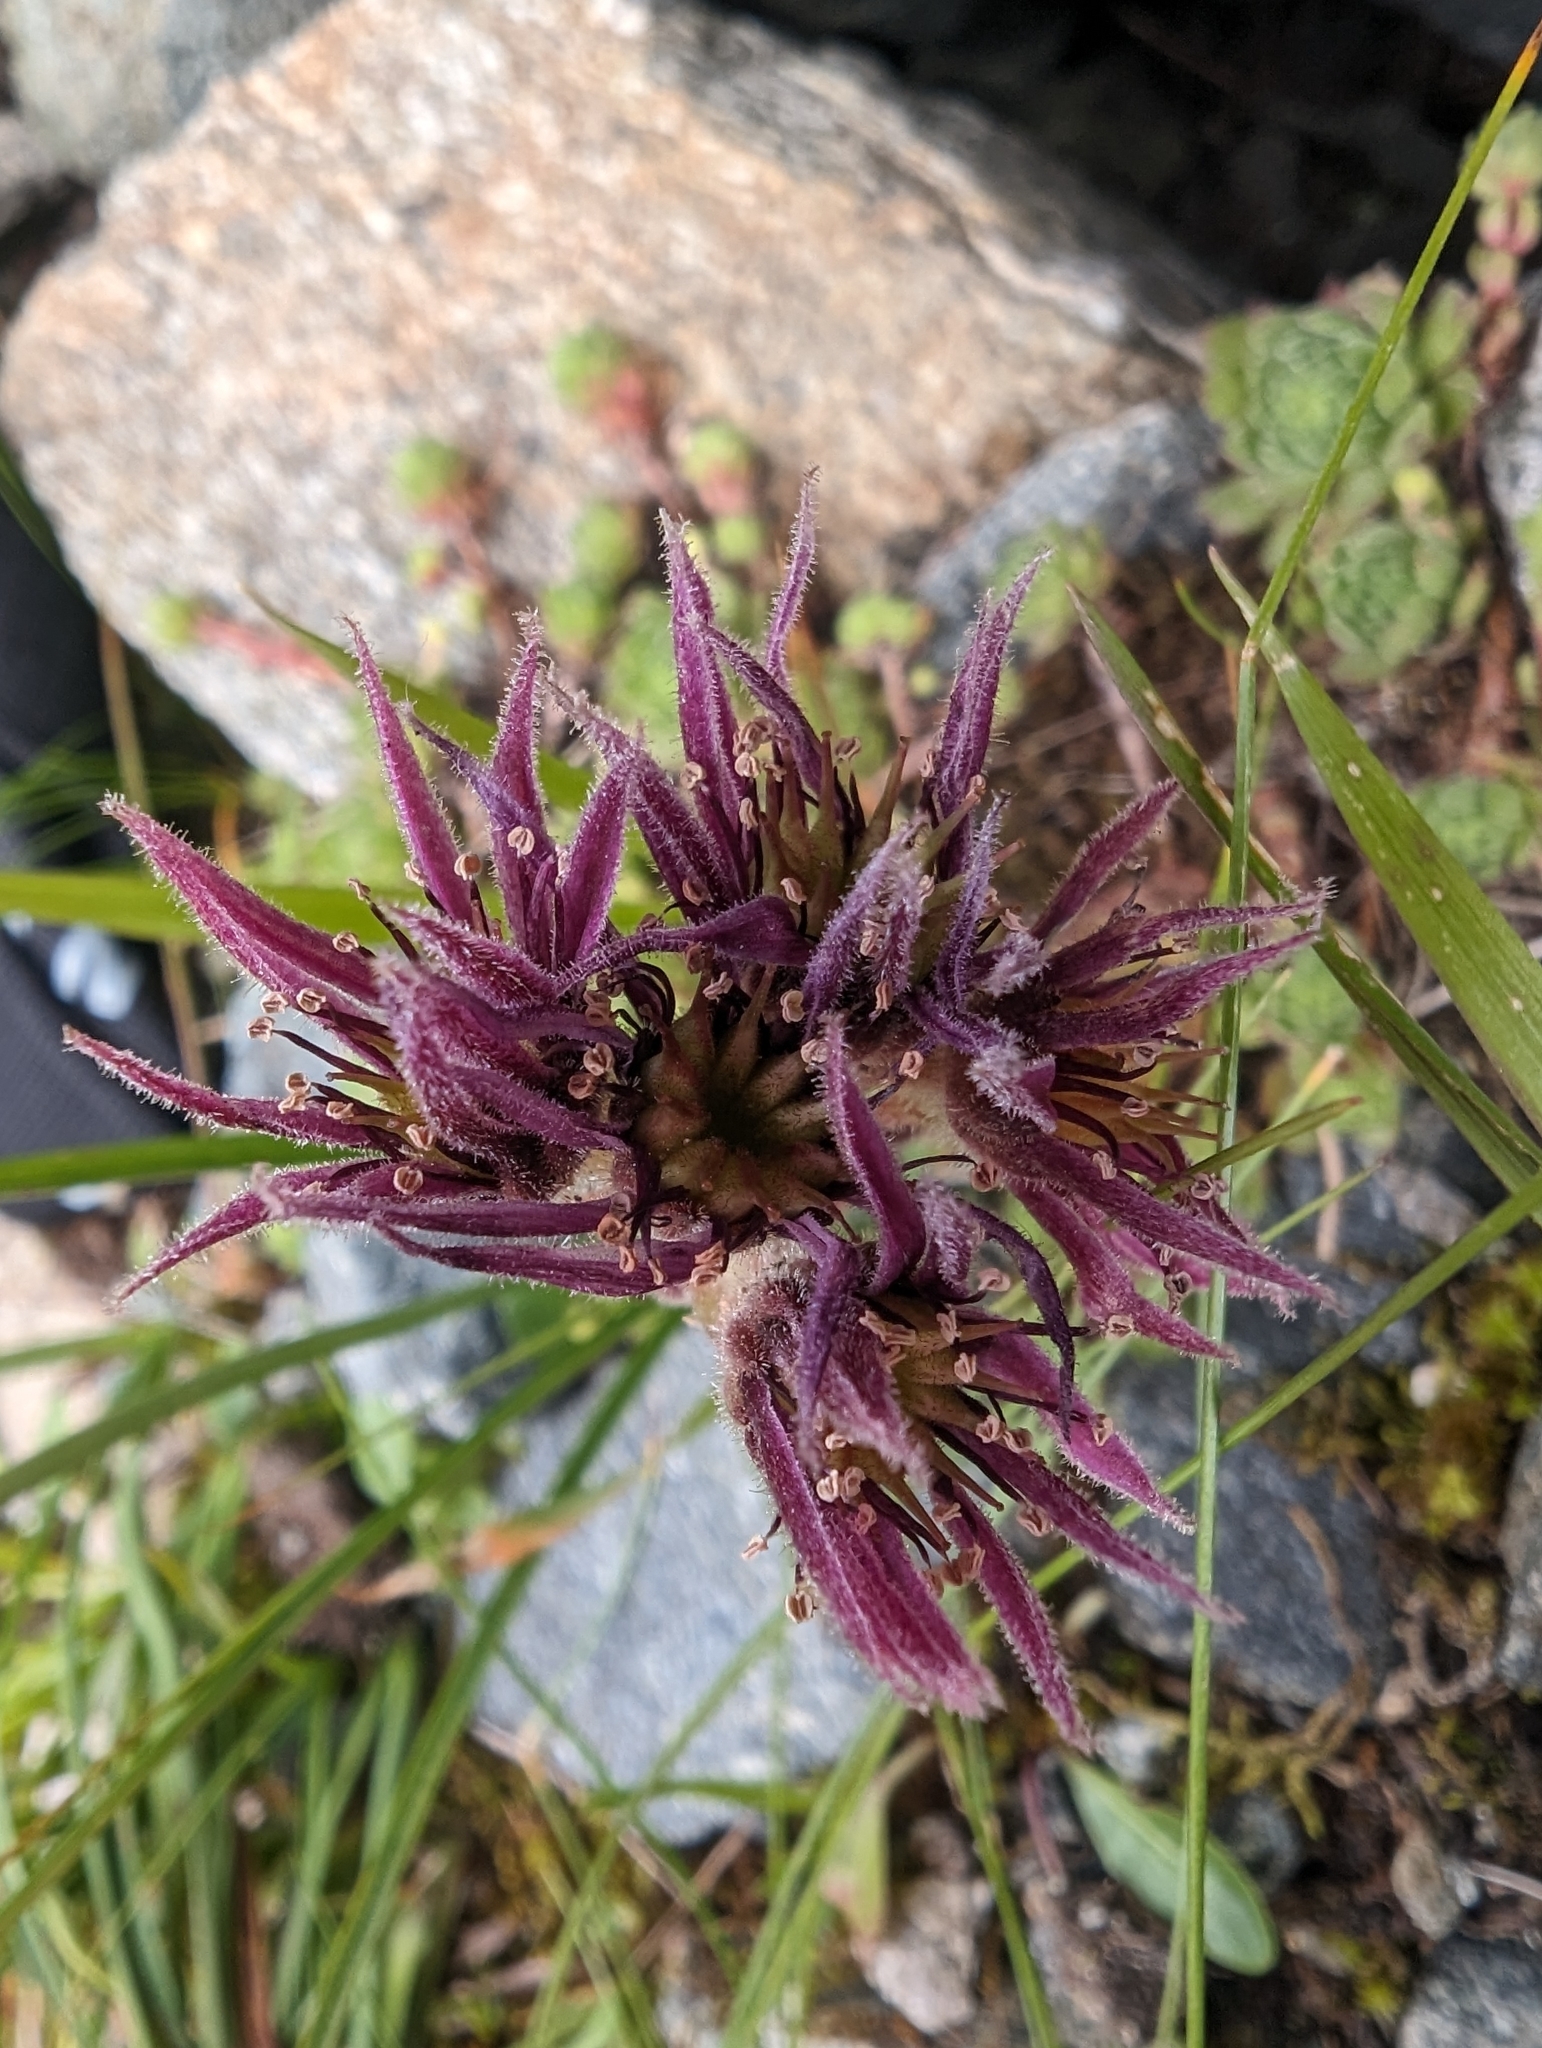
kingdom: Plantae
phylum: Tracheophyta
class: Magnoliopsida
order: Saxifragales
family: Crassulaceae
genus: Sempervivum
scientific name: Sempervivum montanum
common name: Mountain house-leek
